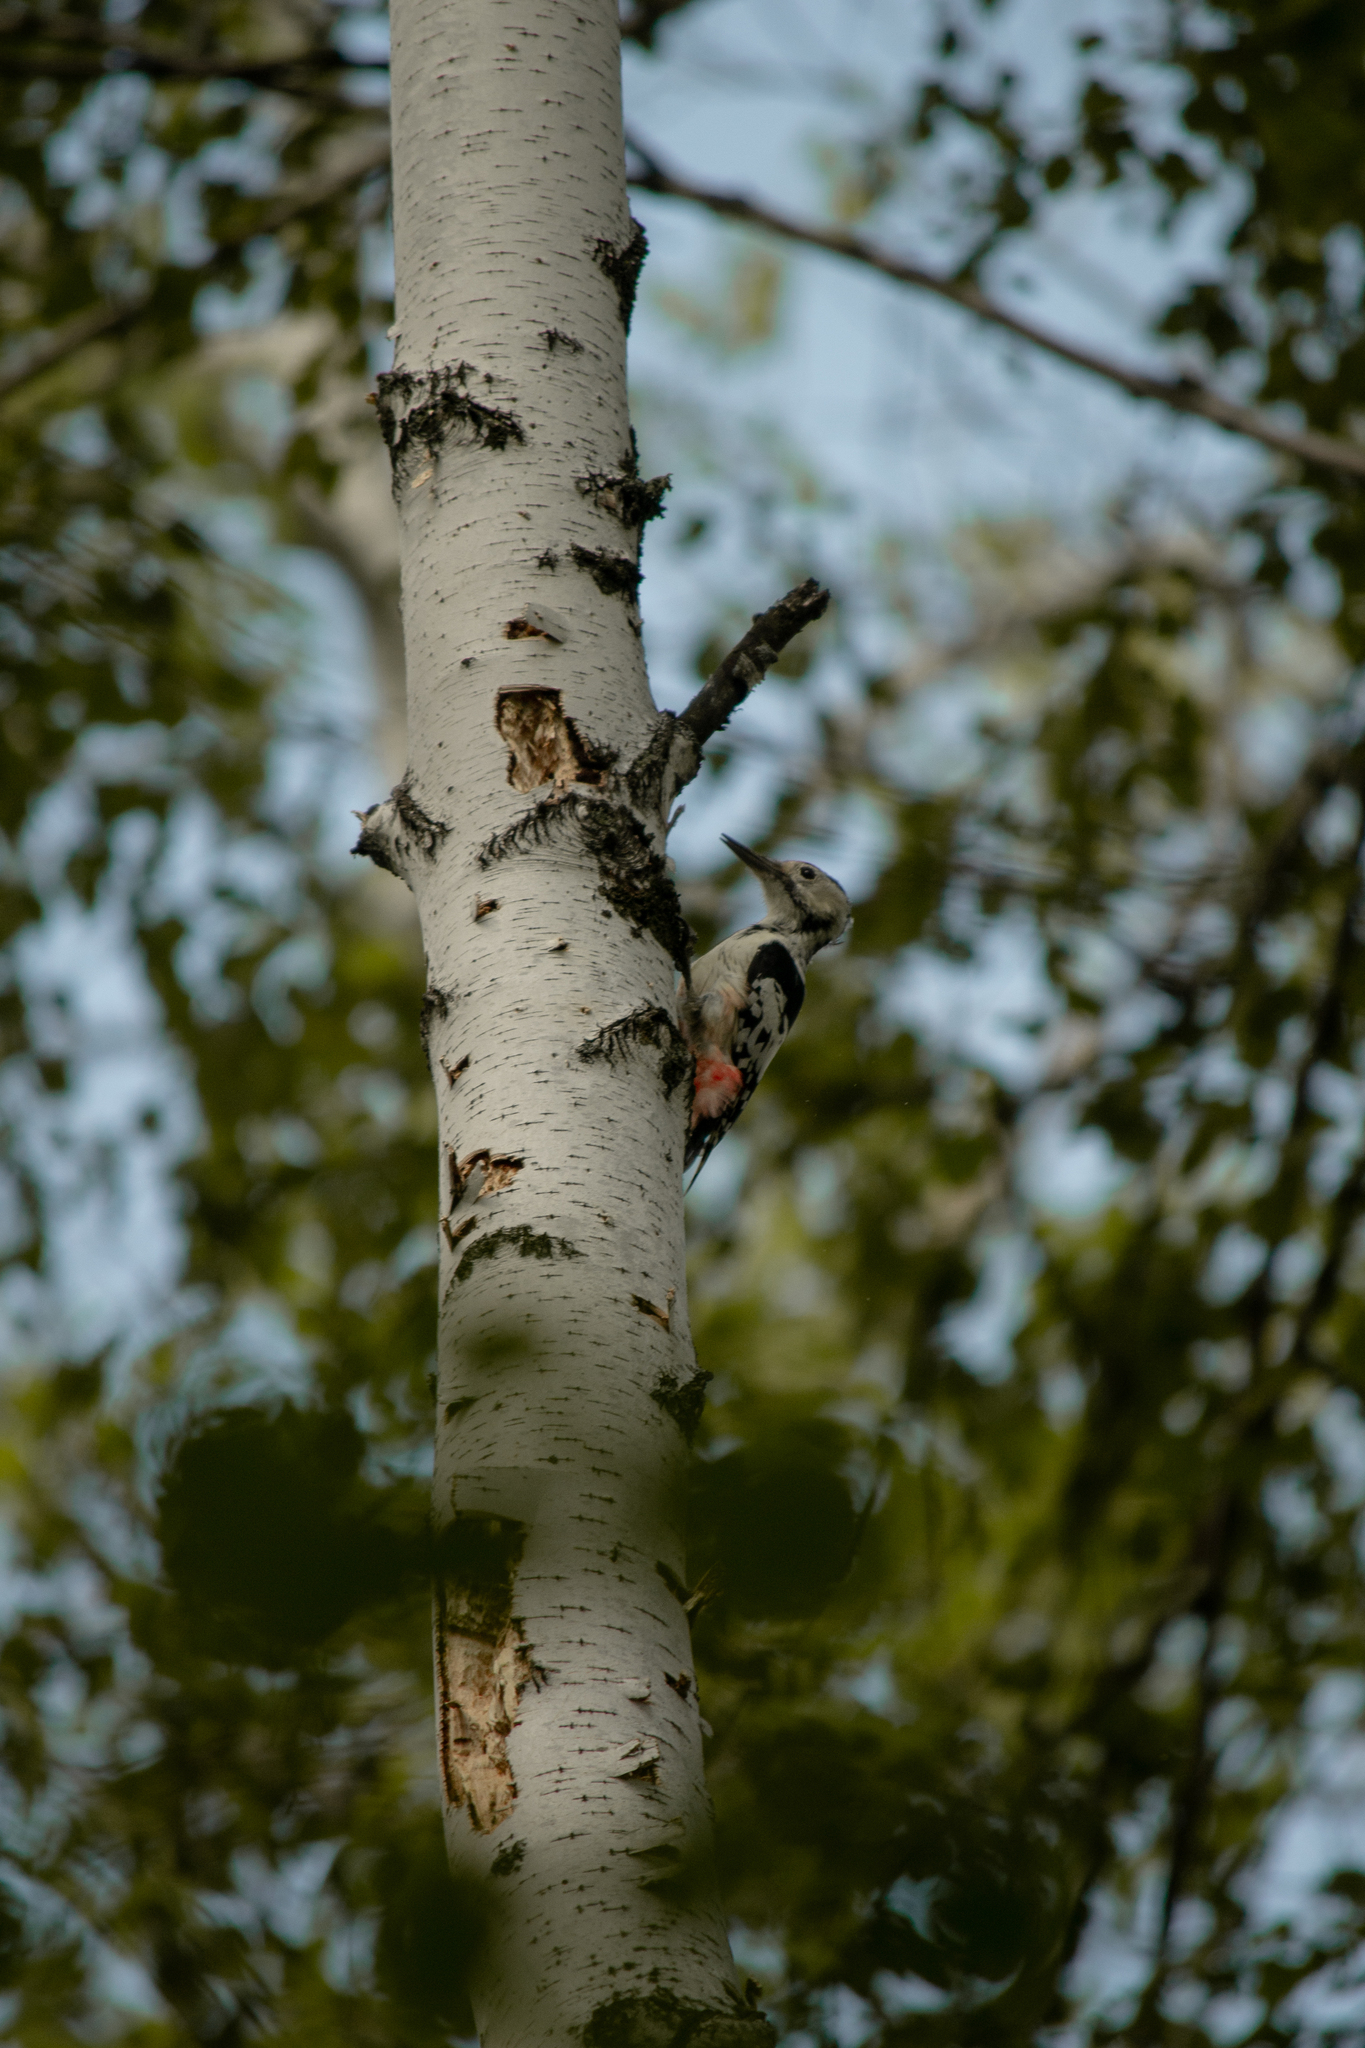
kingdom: Animalia
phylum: Chordata
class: Aves
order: Piciformes
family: Picidae
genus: Dendrocopos
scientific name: Dendrocopos leucotos
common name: White-backed woodpecker
